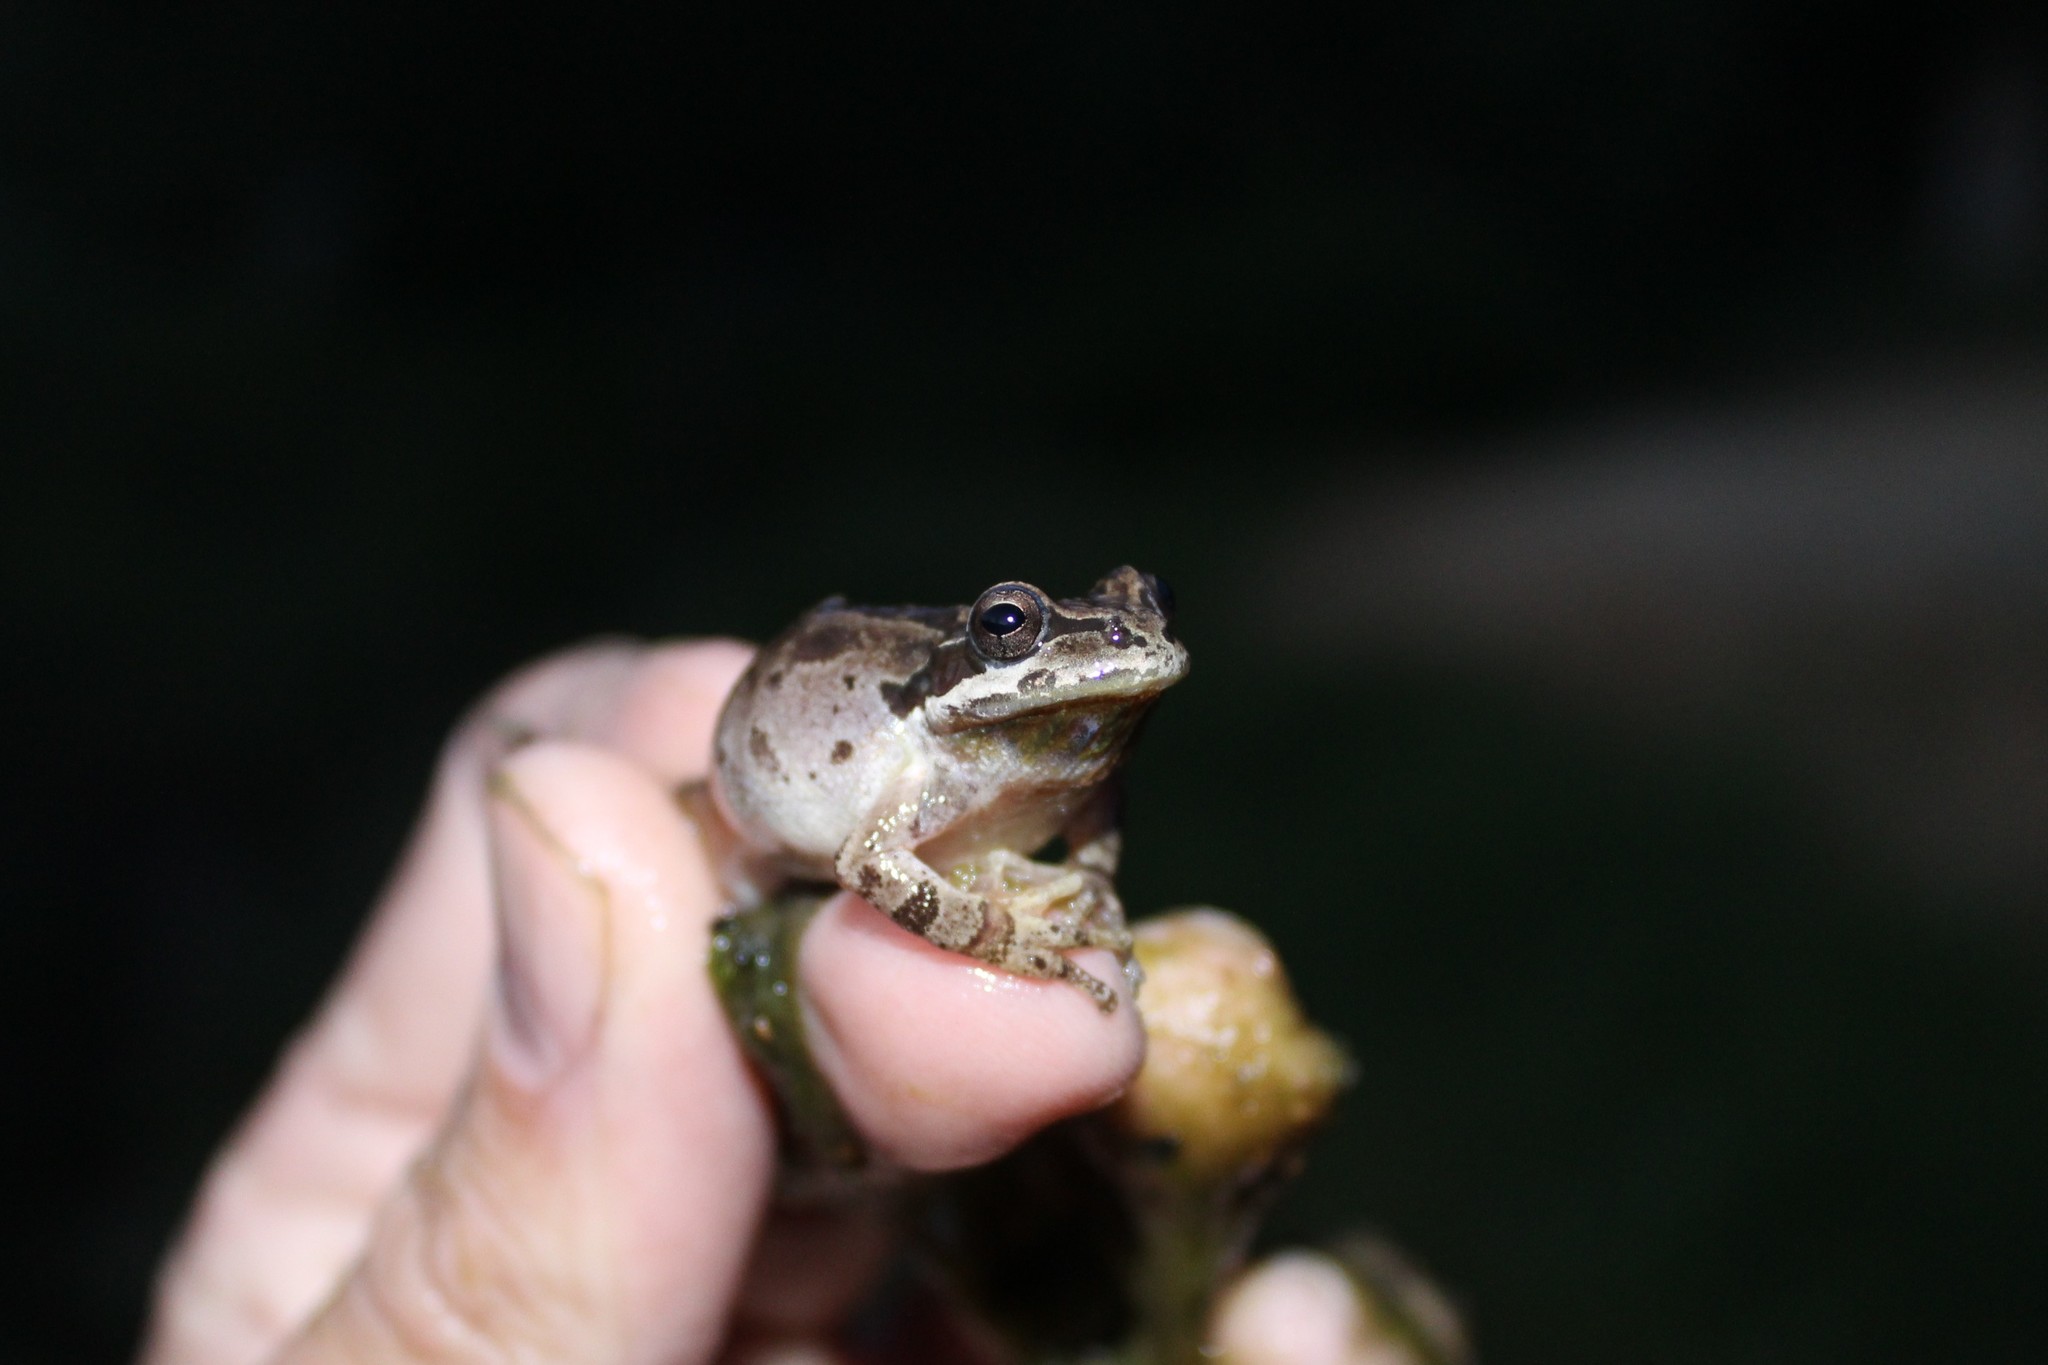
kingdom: Animalia
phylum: Chordata
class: Amphibia
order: Anura
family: Hylidae
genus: Pseudacris
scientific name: Pseudacris regilla
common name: Pacific chorus frog
